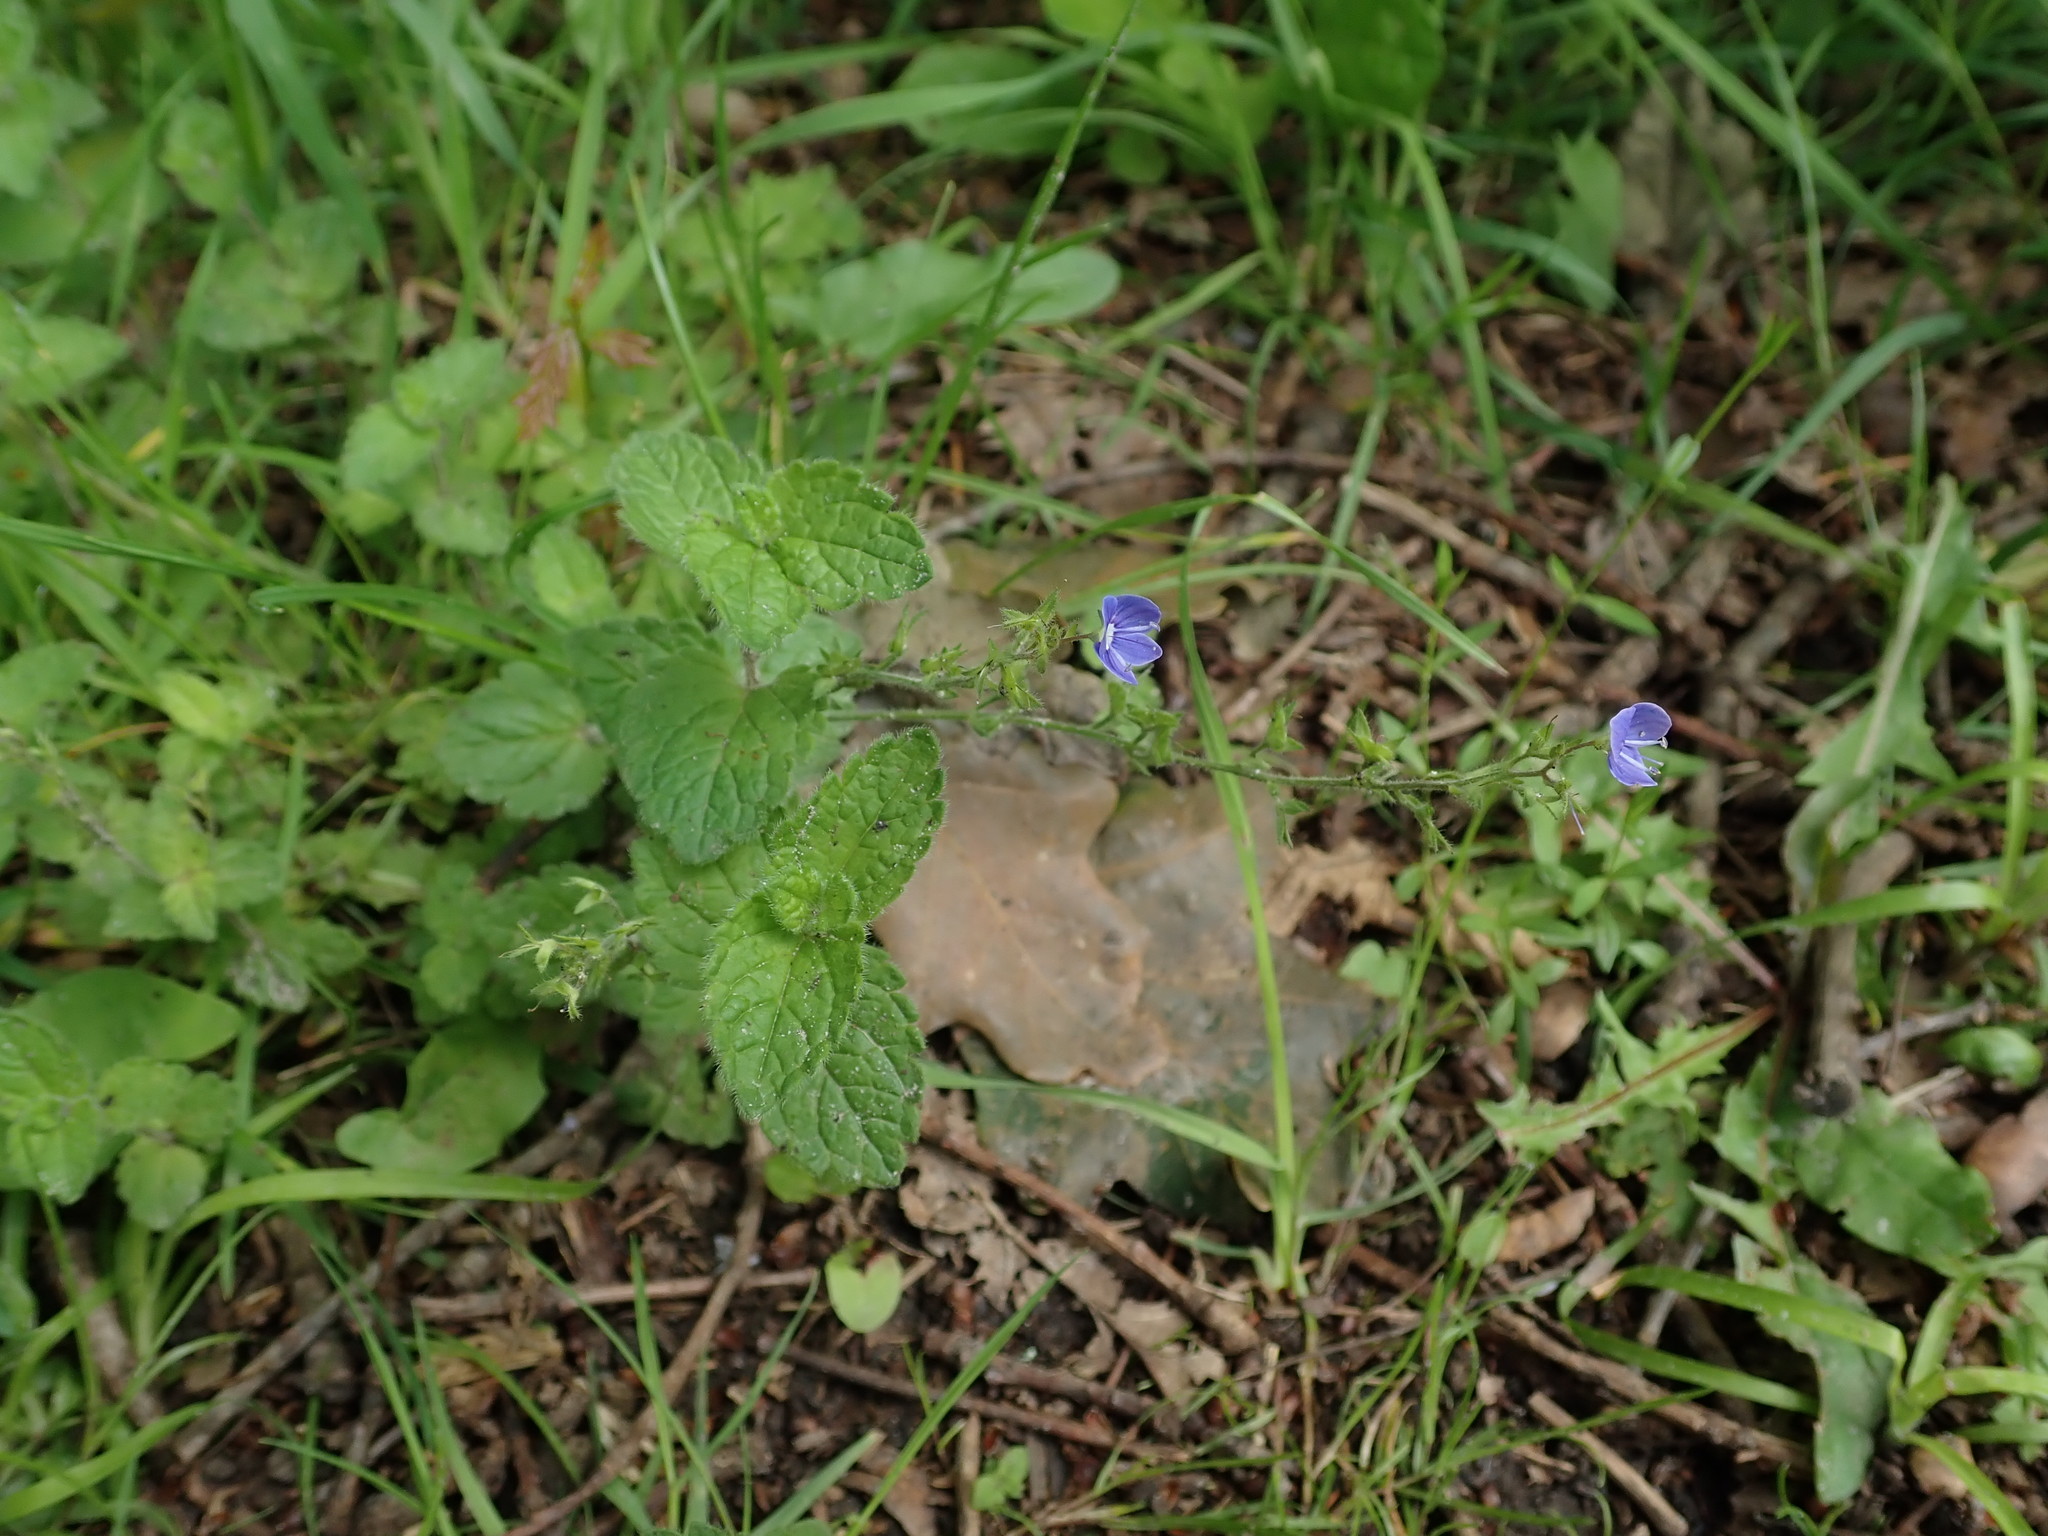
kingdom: Plantae
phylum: Tracheophyta
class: Magnoliopsida
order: Lamiales
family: Plantaginaceae
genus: Veronica
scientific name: Veronica chamaedrys
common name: Germander speedwell
